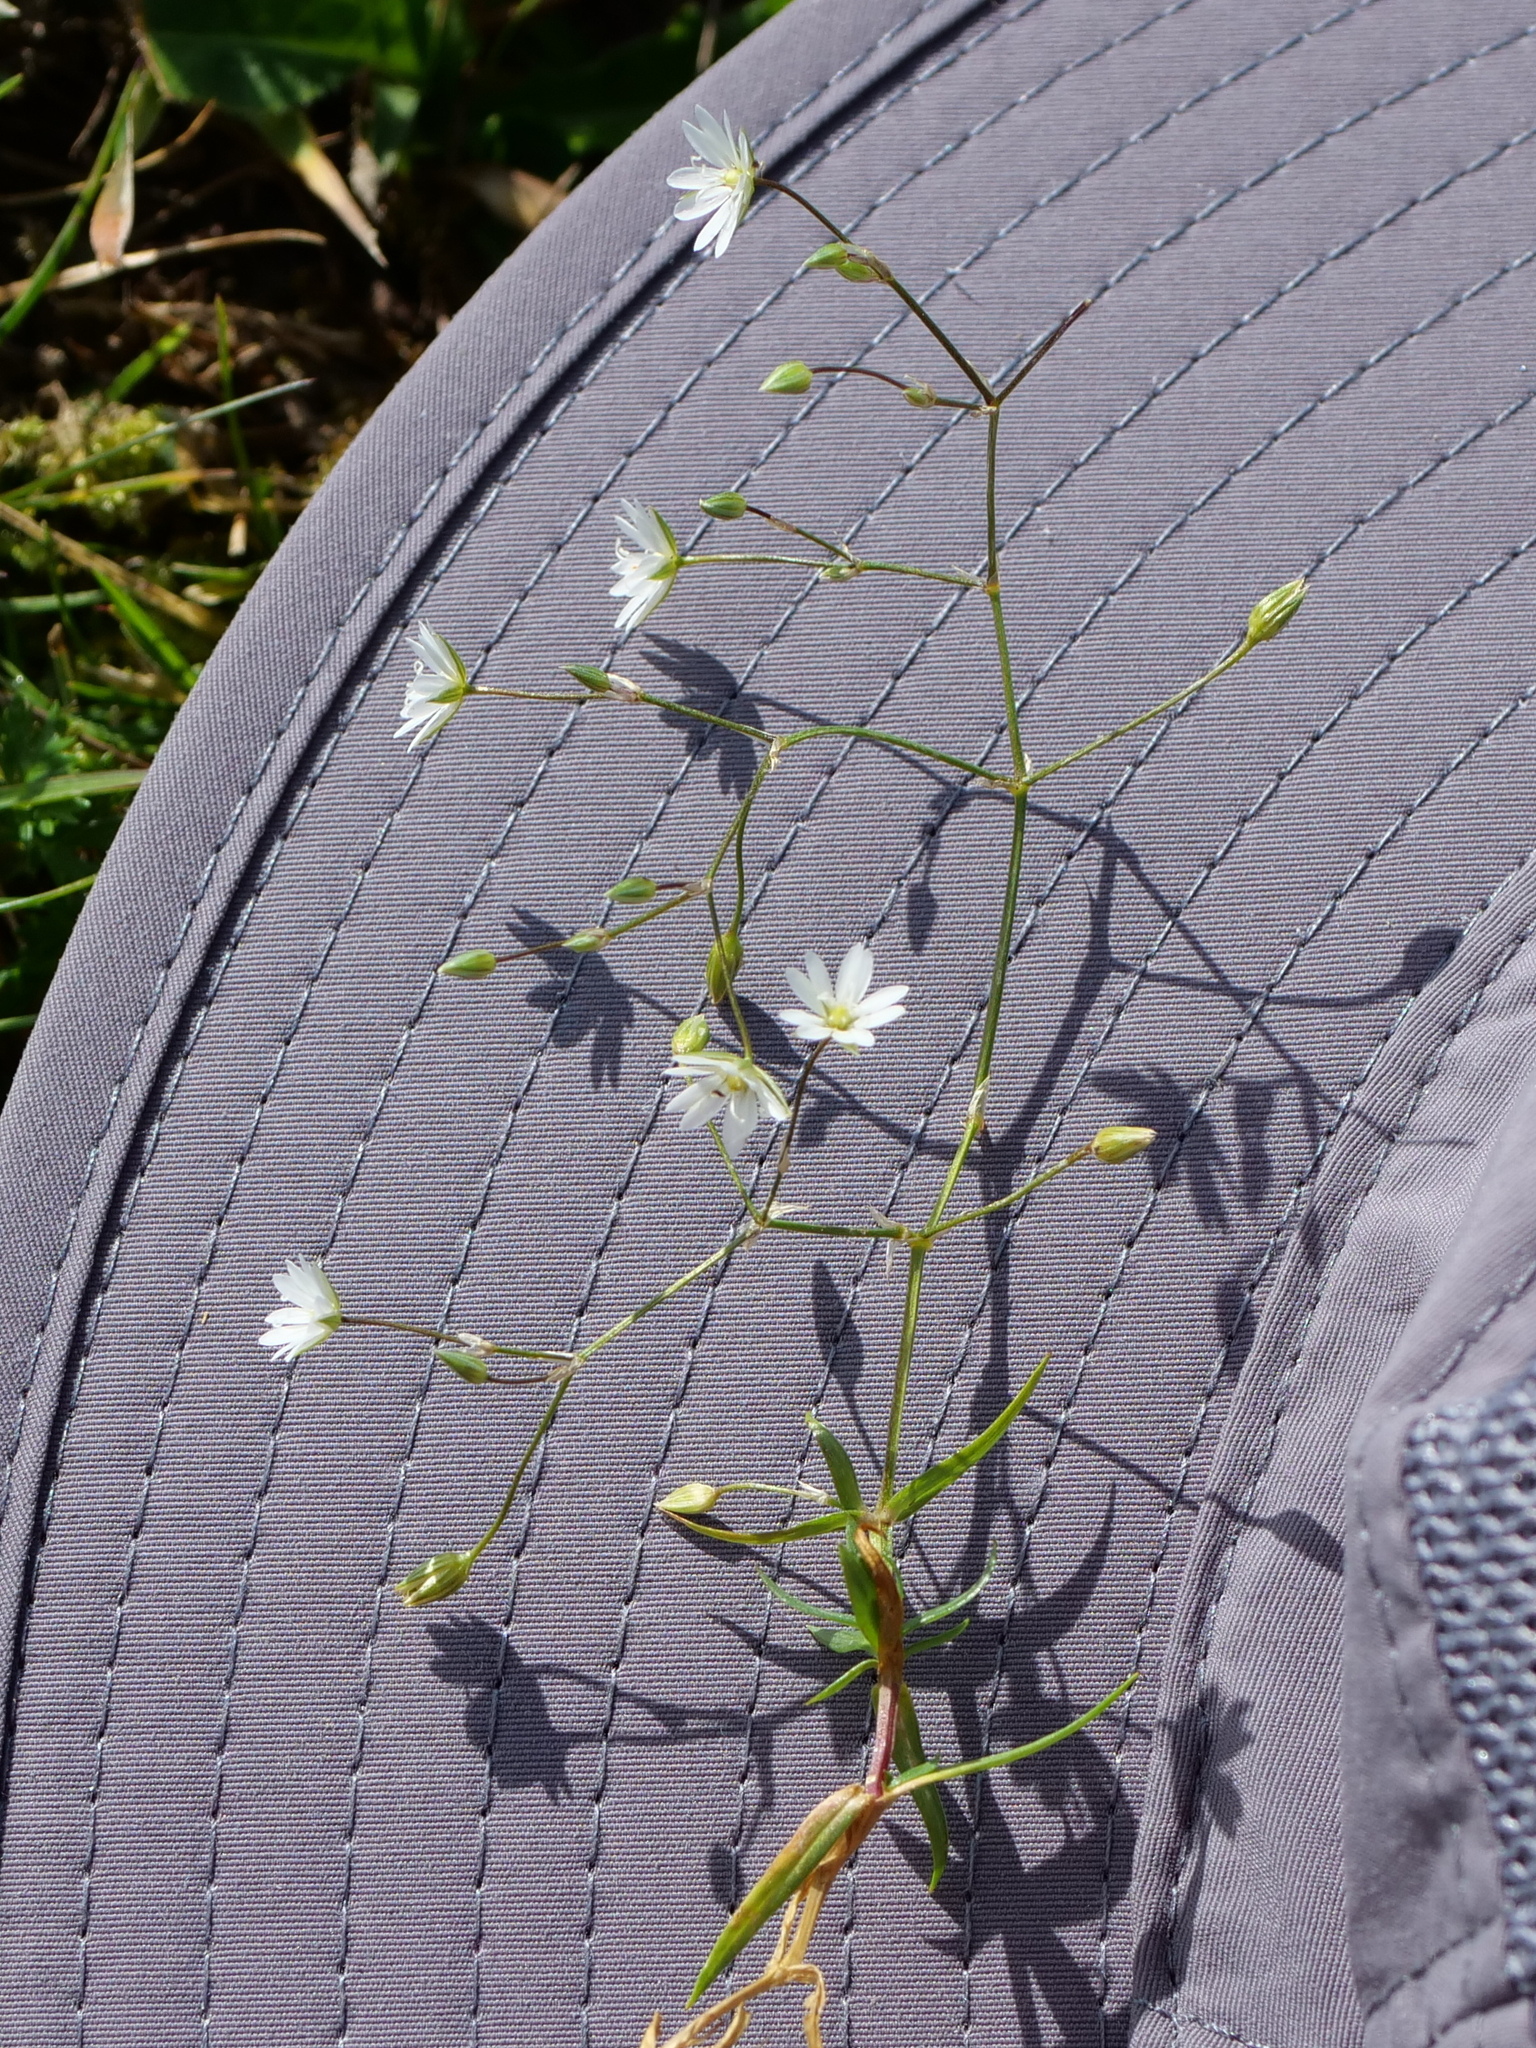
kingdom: Plantae
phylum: Tracheophyta
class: Magnoliopsida
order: Caryophyllales
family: Caryophyllaceae
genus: Stellaria
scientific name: Stellaria graminea
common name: Grass-like starwort
